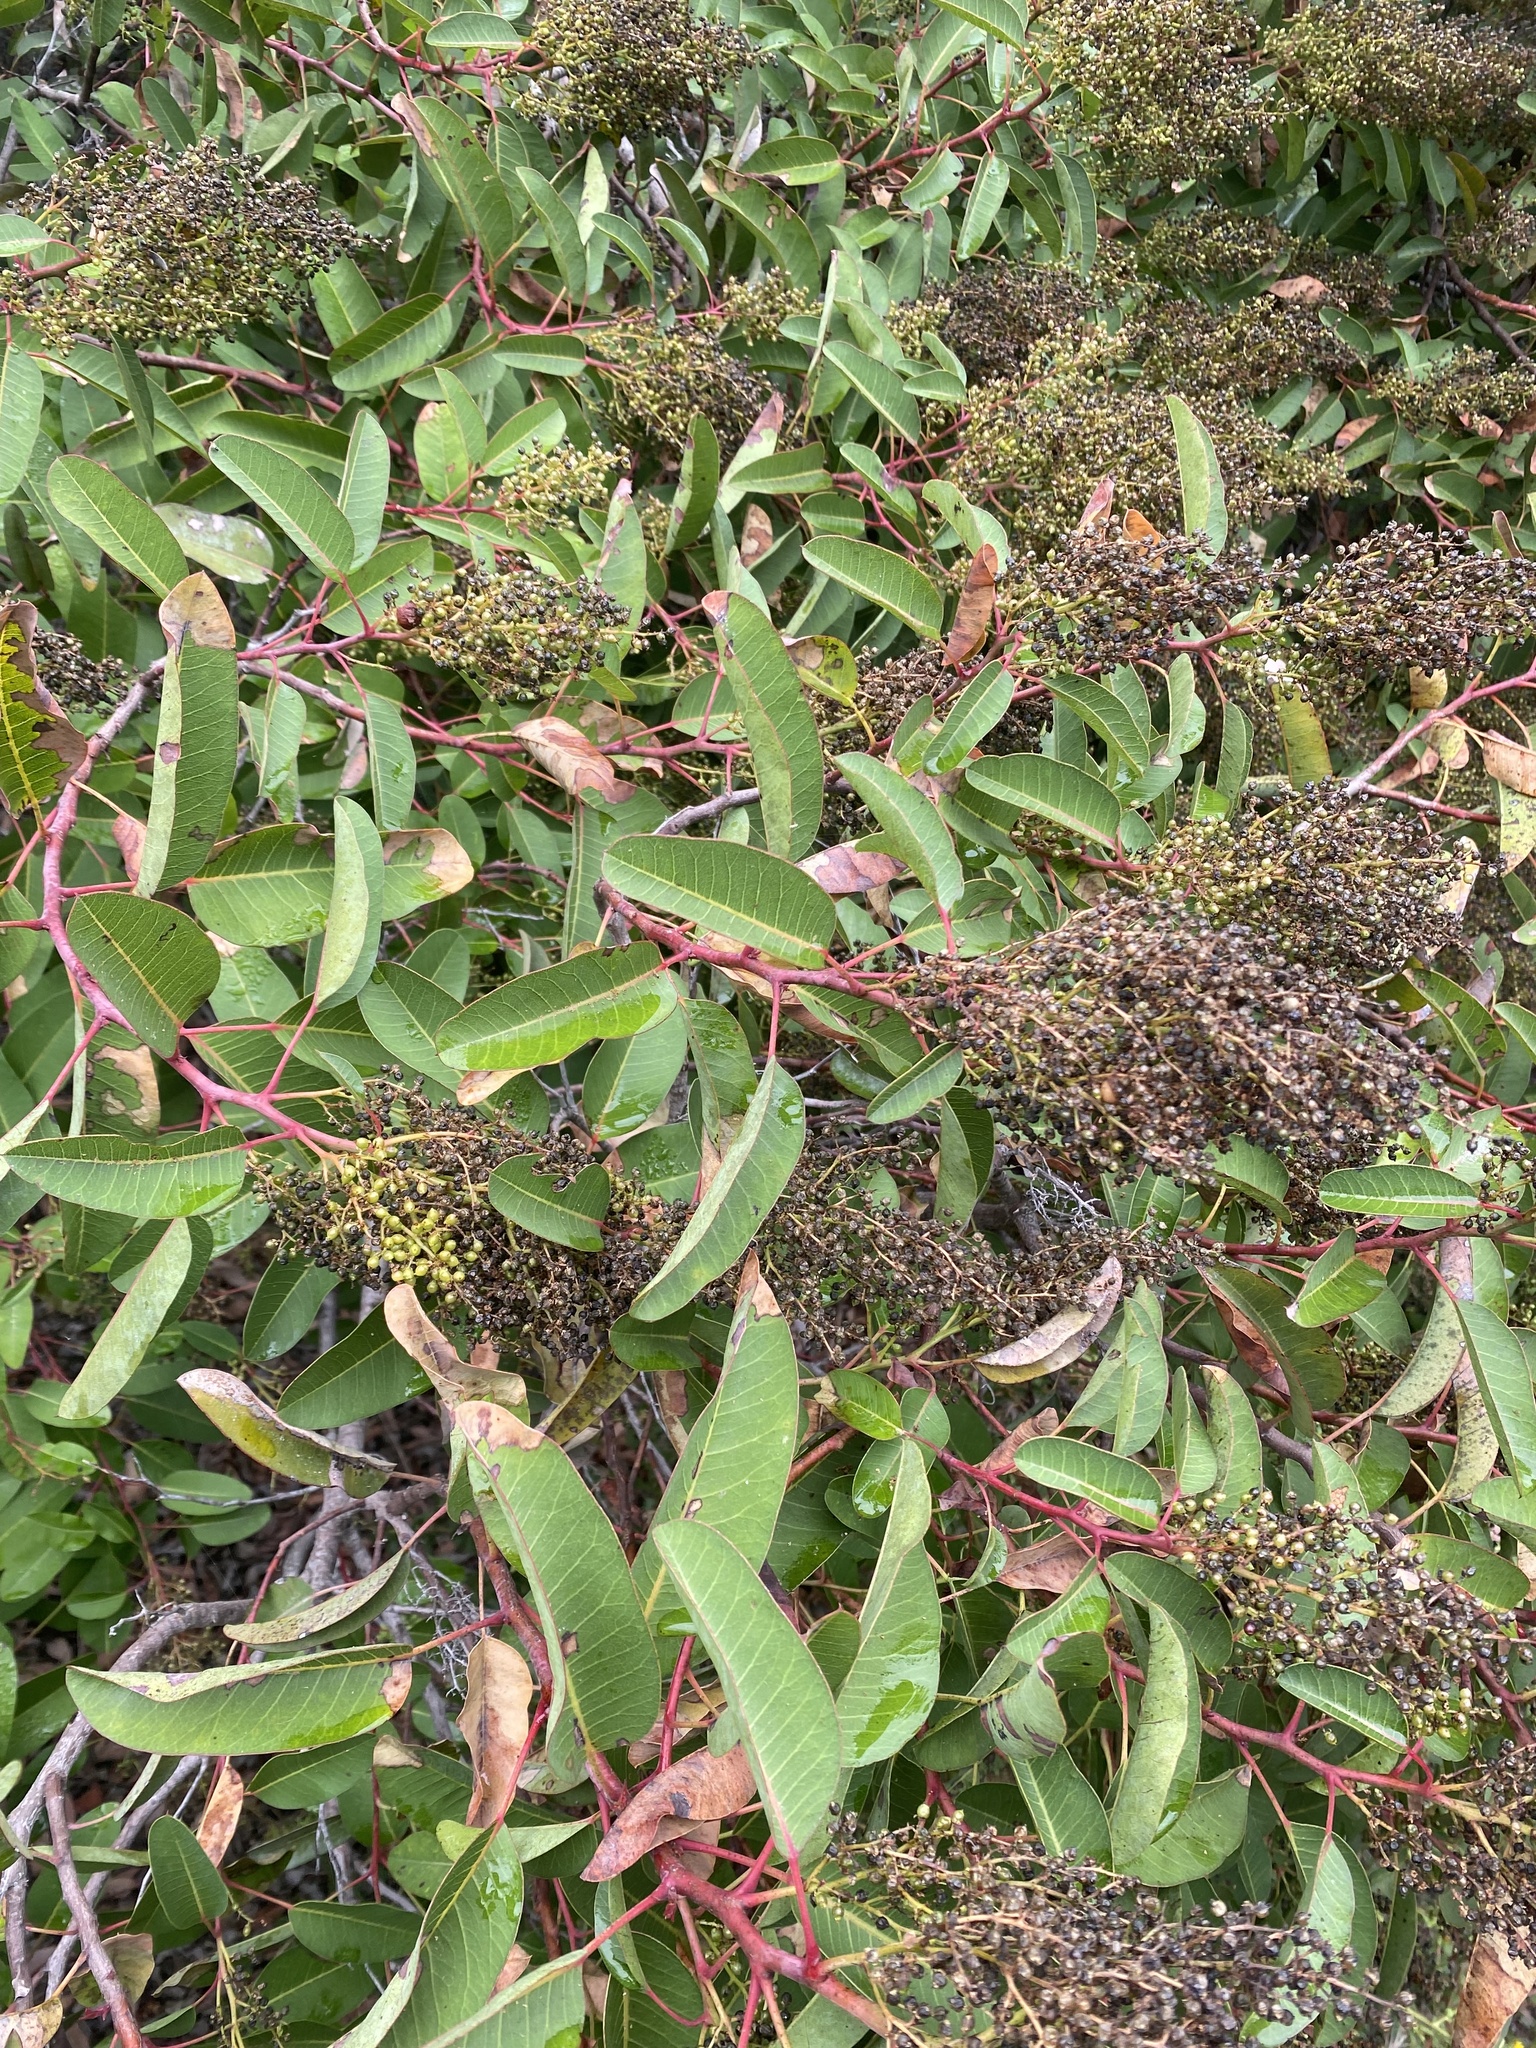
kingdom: Plantae
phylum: Tracheophyta
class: Magnoliopsida
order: Sapindales
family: Anacardiaceae
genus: Malosma
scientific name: Malosma laurina
